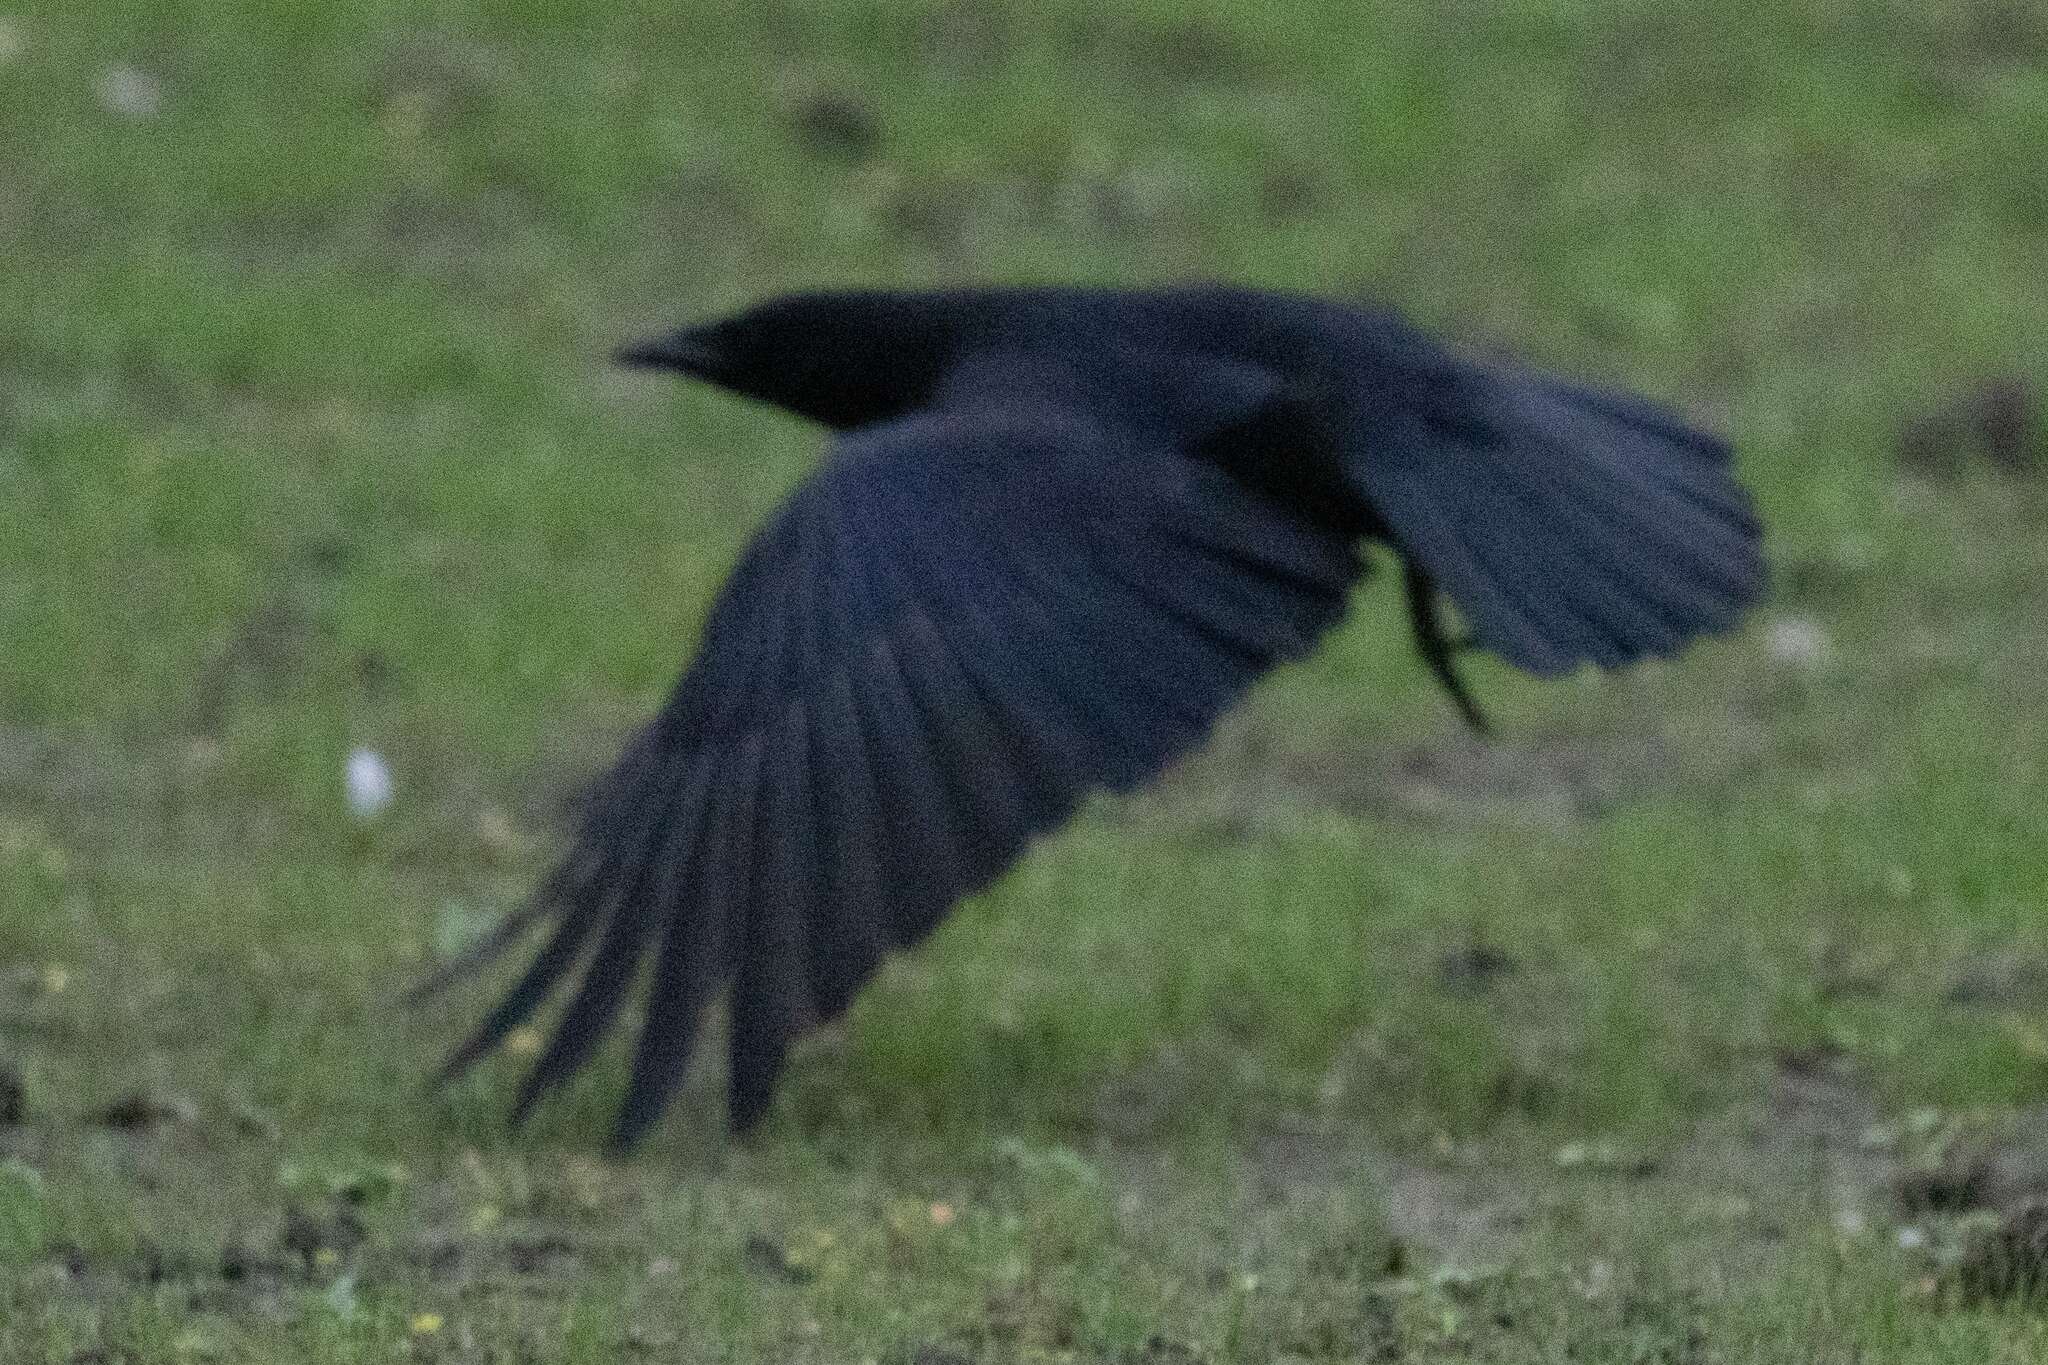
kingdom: Animalia
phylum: Chordata
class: Aves
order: Passeriformes
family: Corvidae
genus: Corvus
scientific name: Corvus corone
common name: Carrion crow
